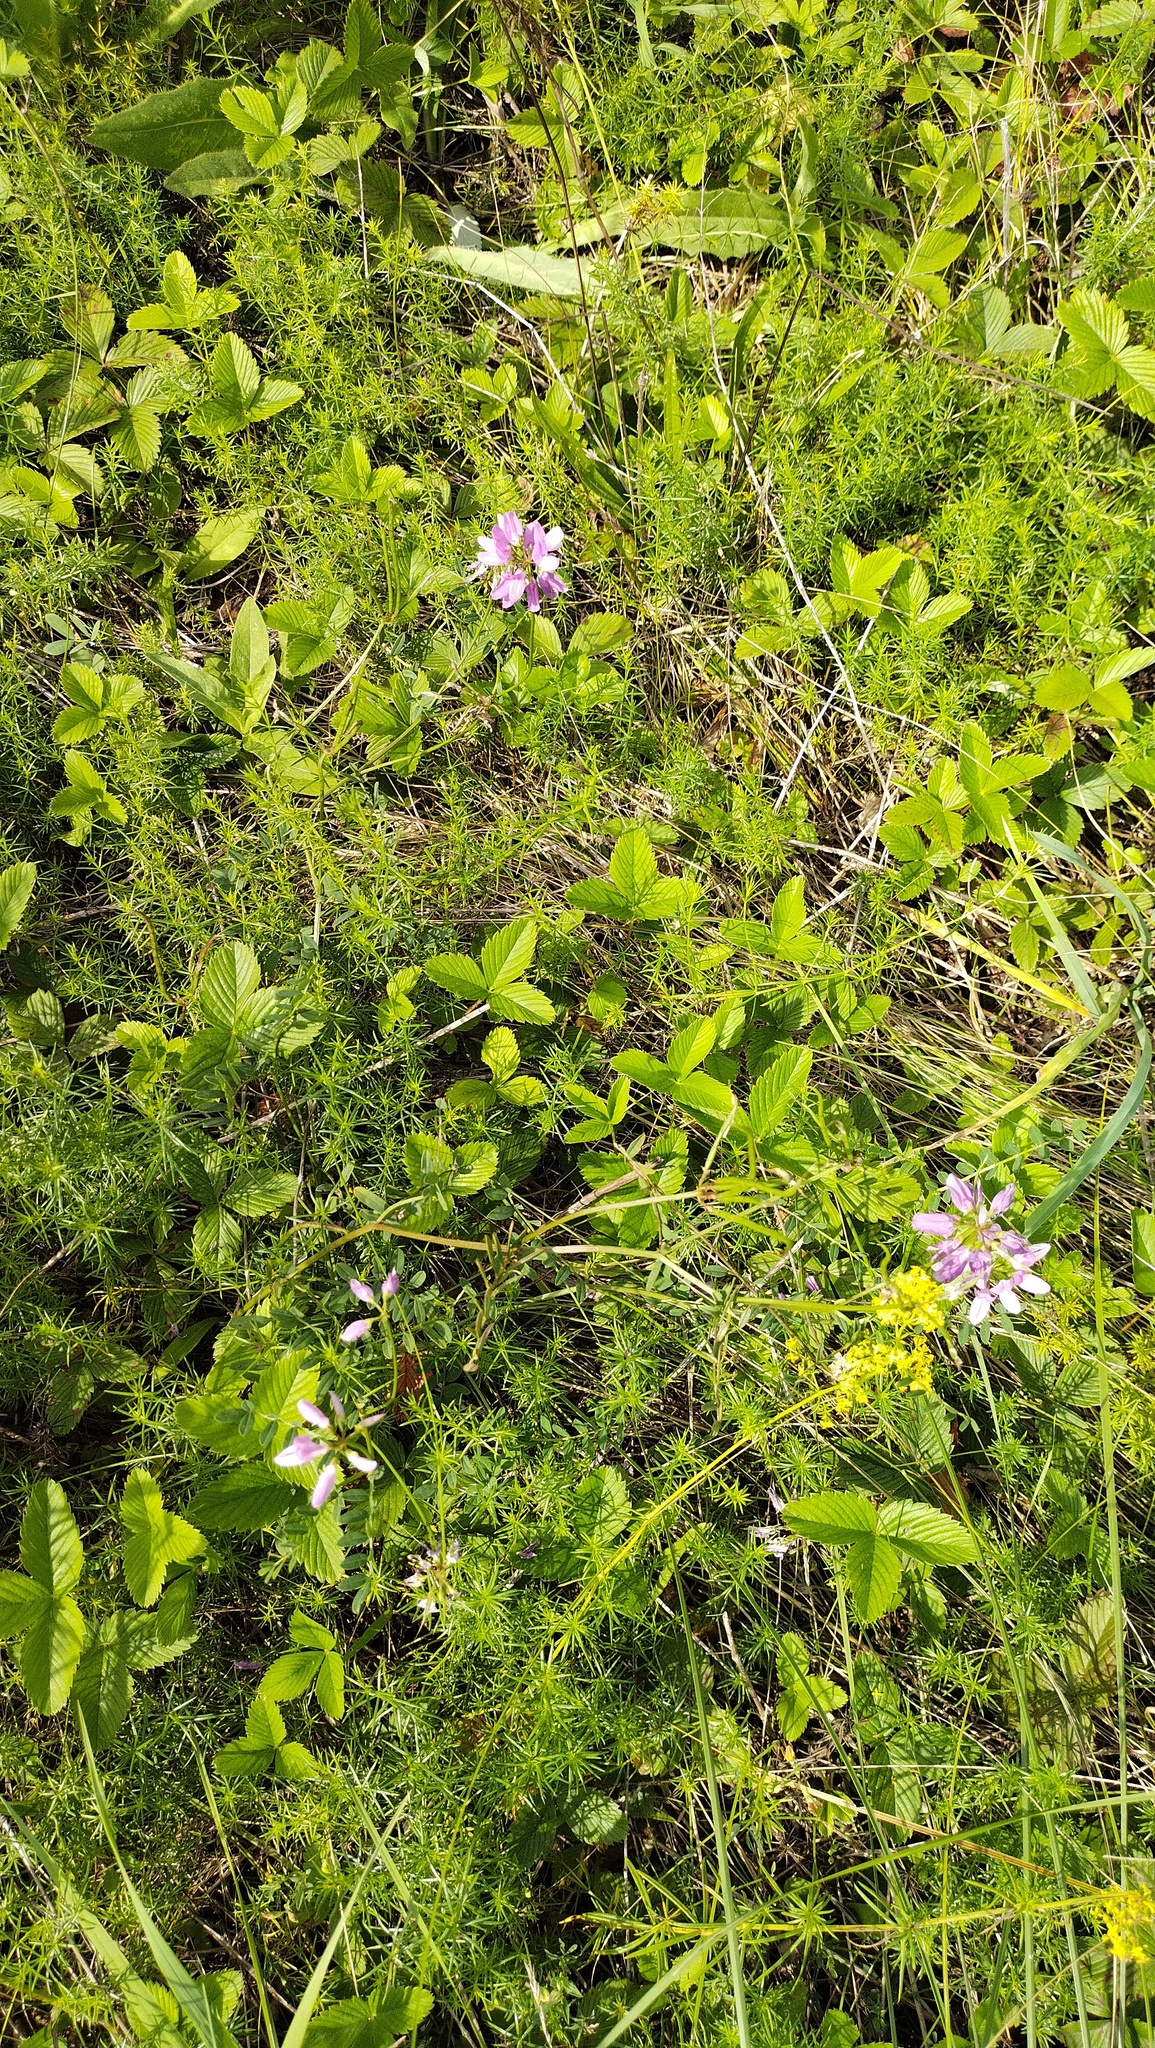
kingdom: Plantae
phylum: Tracheophyta
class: Magnoliopsida
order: Fabales
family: Fabaceae
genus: Coronilla
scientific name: Coronilla varia
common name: Crownvetch
